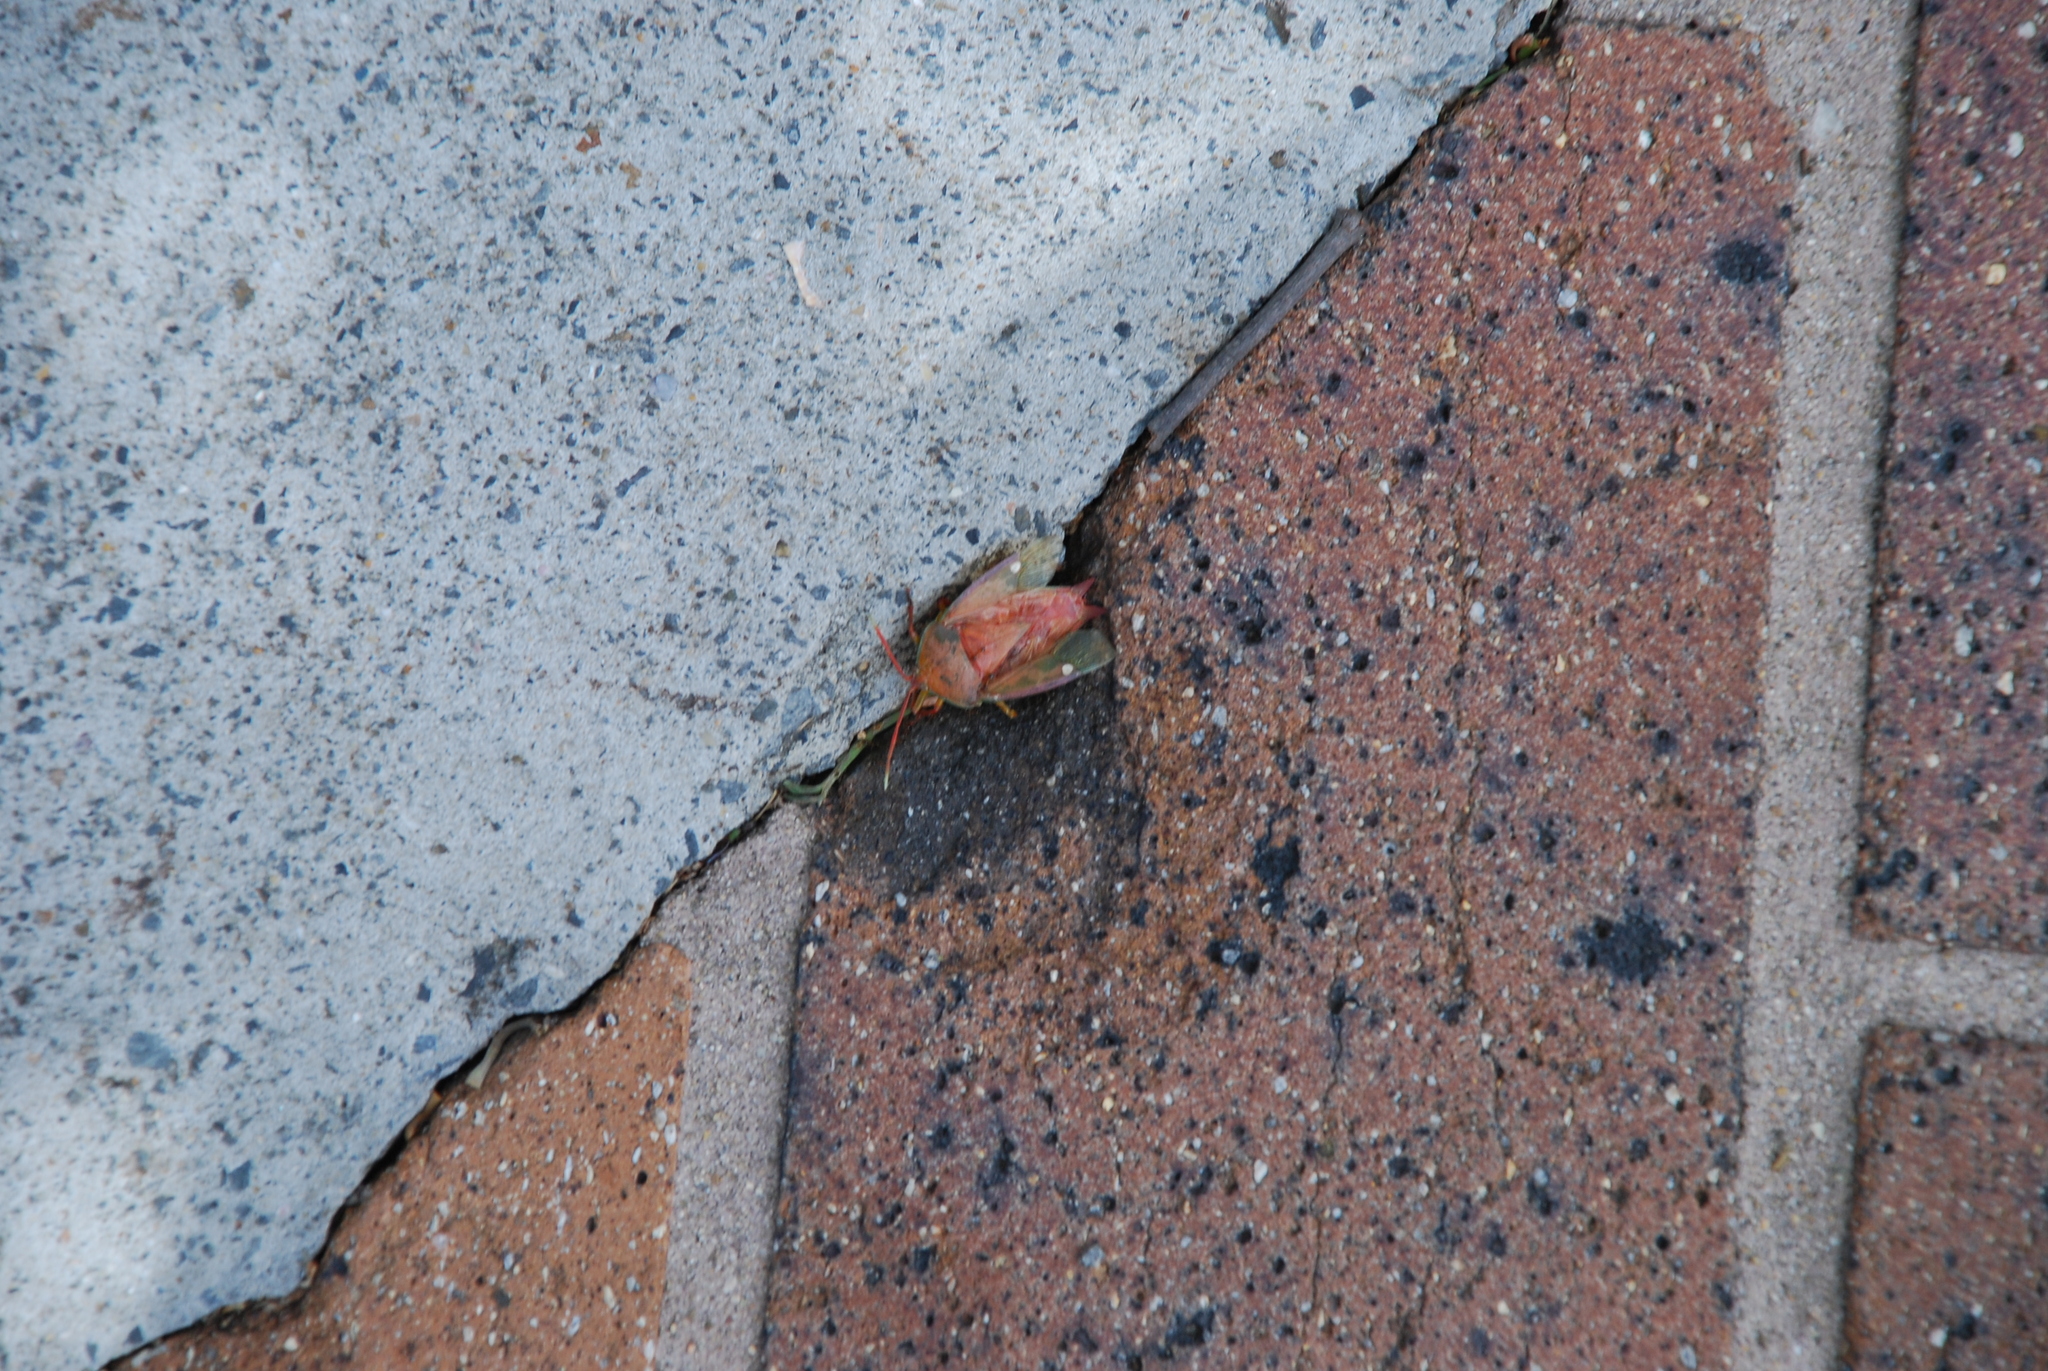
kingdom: Animalia
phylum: Arthropoda
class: Insecta
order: Hemiptera
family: Tessaratomidae
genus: Lyramorpha
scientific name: Lyramorpha rosea
